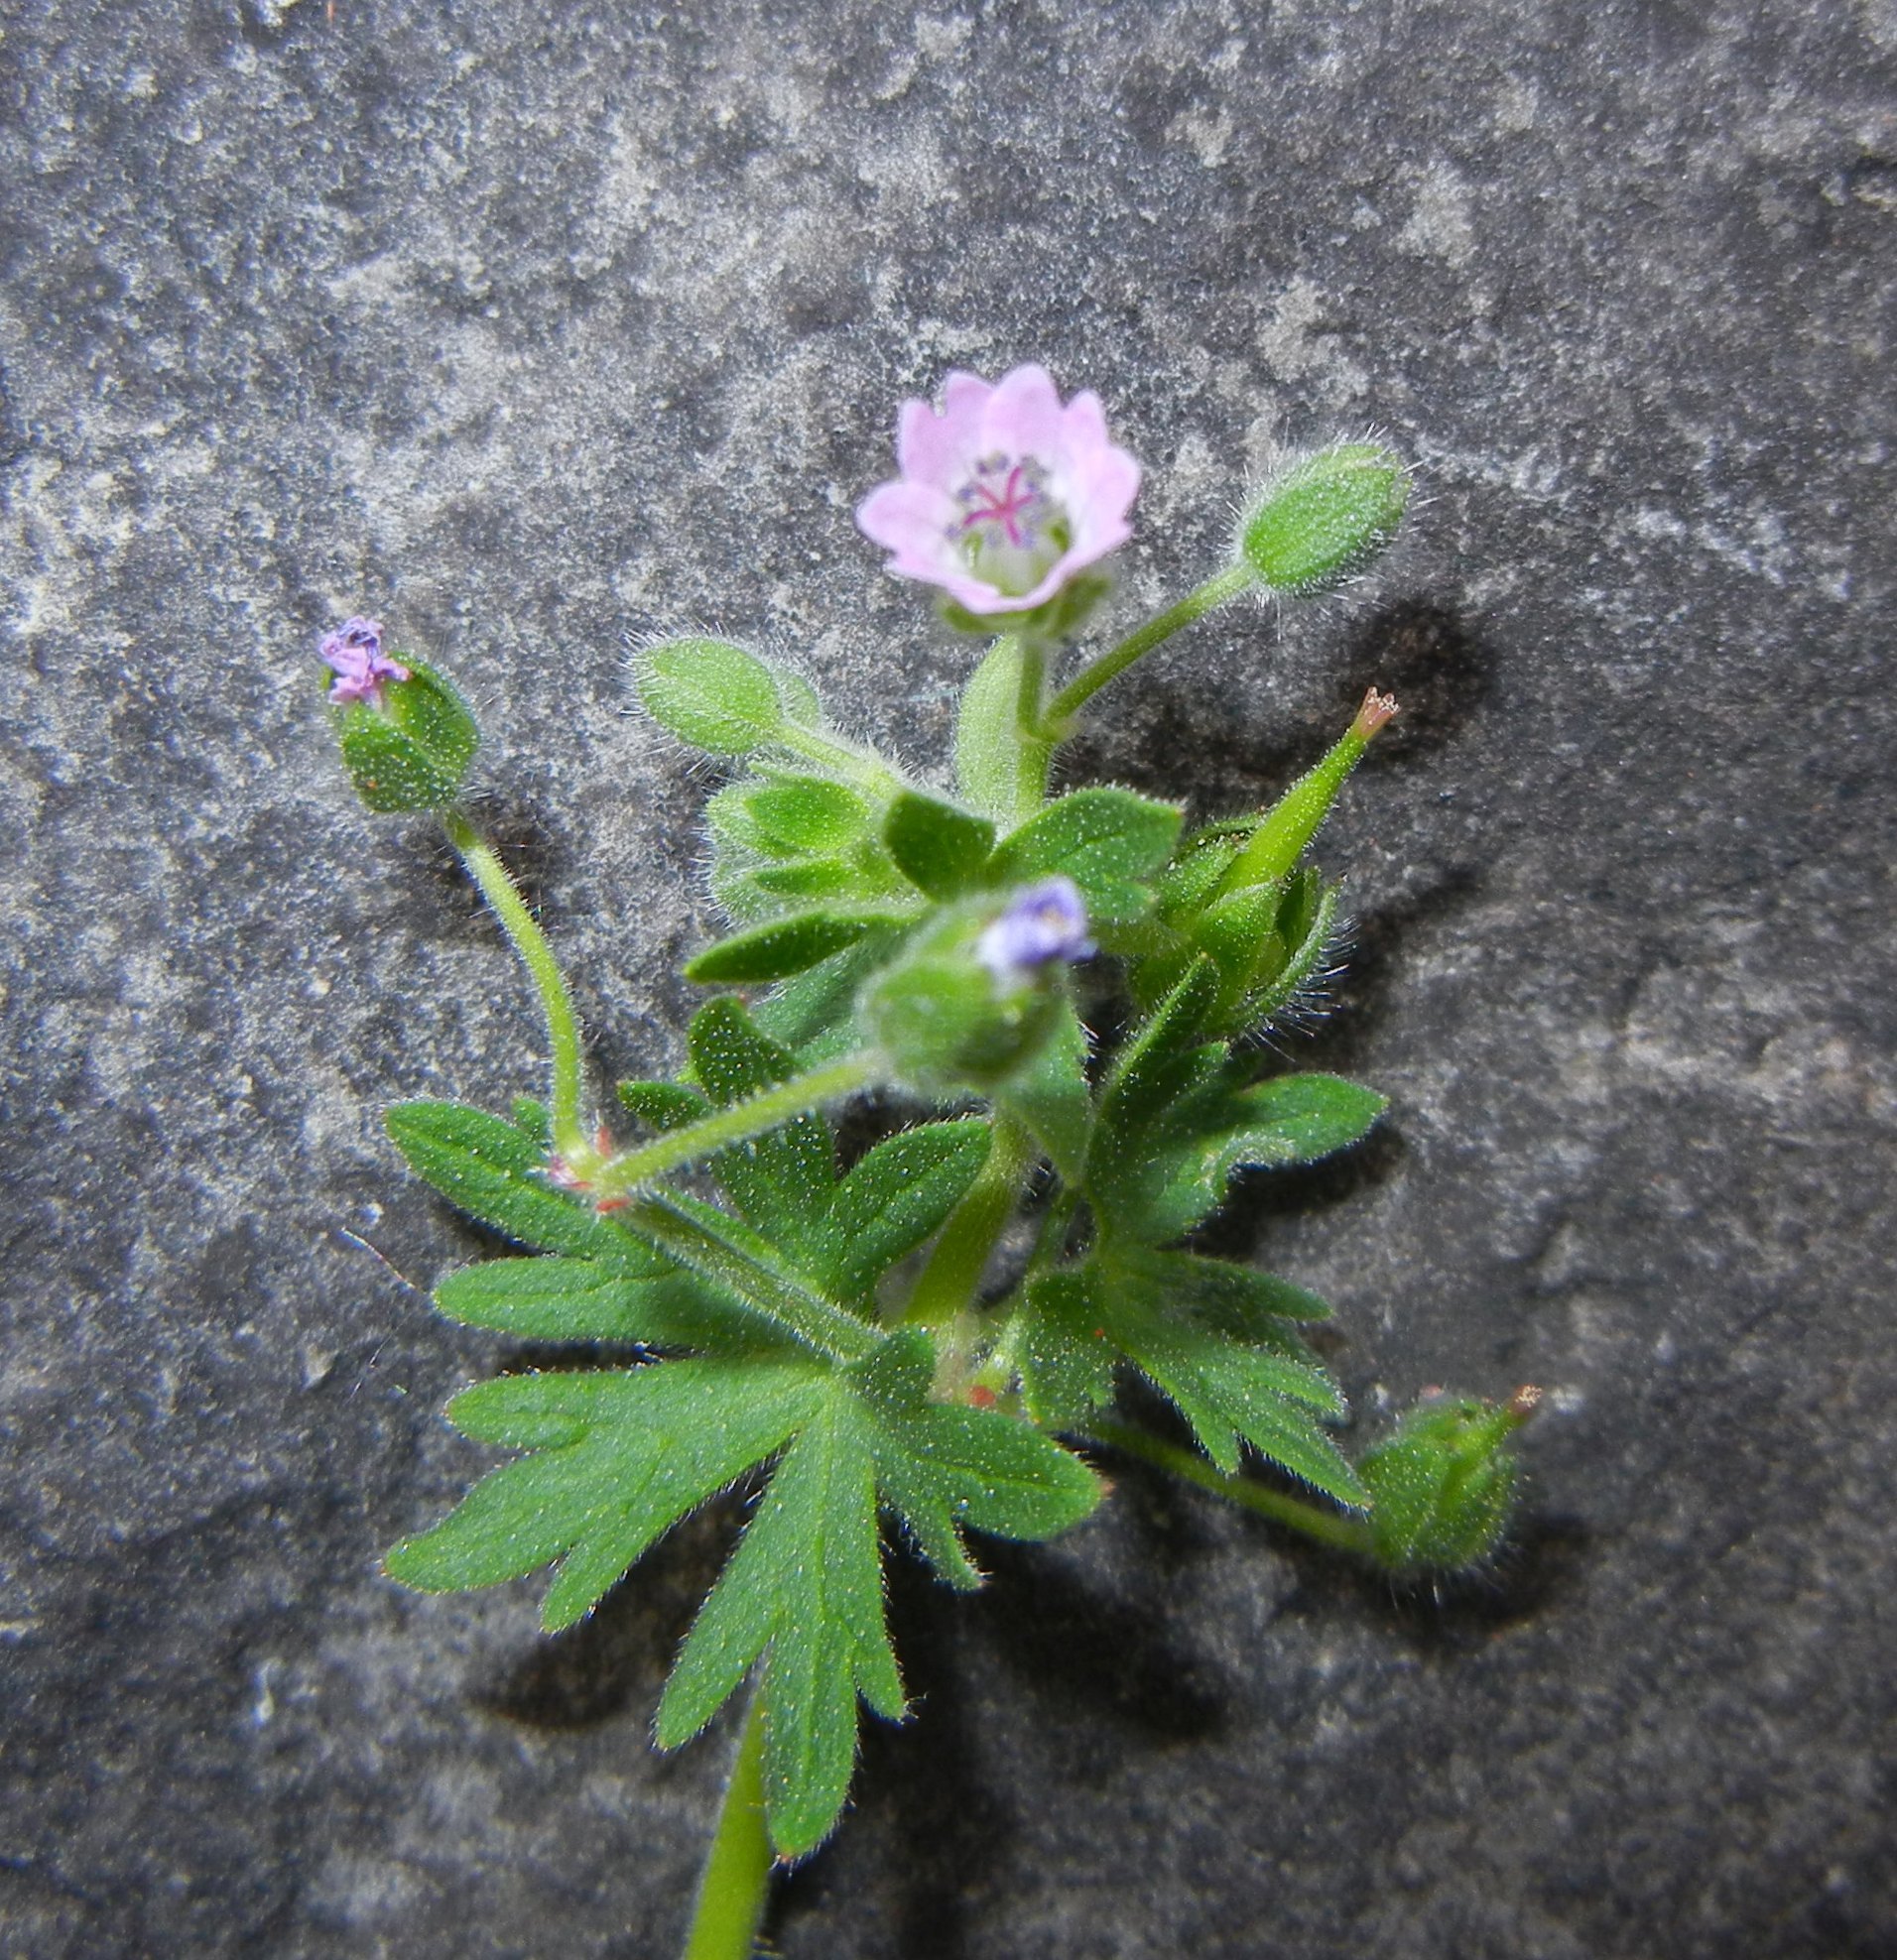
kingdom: Plantae
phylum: Tracheophyta
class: Magnoliopsida
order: Geraniales
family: Geraniaceae
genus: Geranium
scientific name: Geranium pusillum
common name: Small geranium
